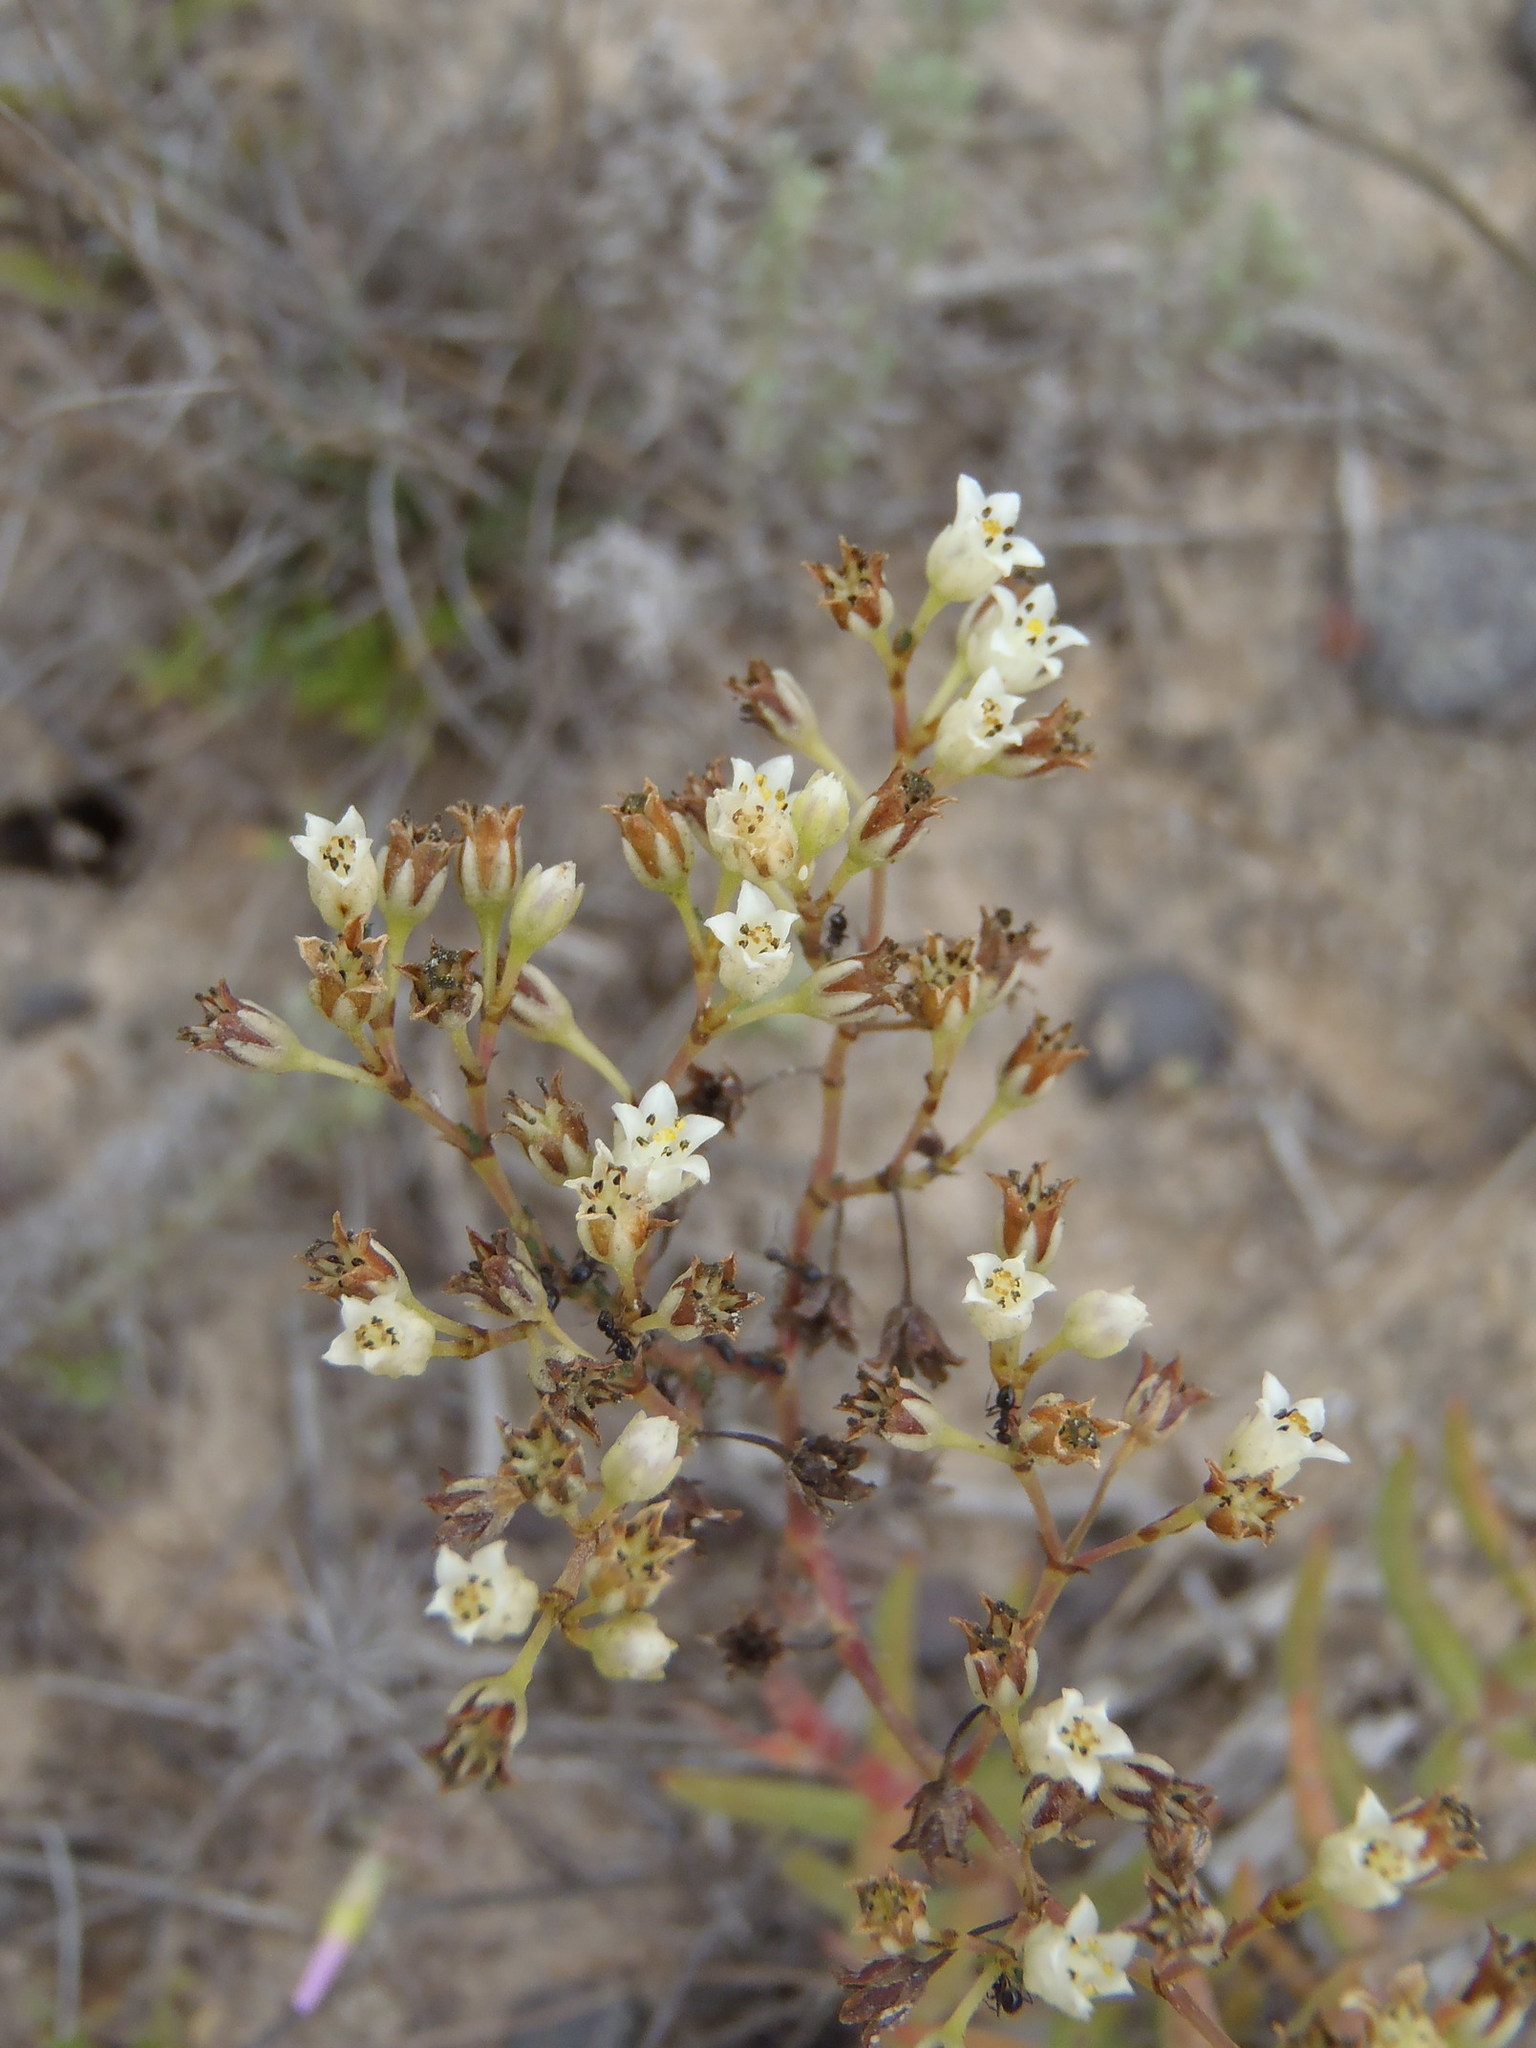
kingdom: Plantae
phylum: Tracheophyta
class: Magnoliopsida
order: Saxifragales
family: Crassulaceae
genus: Crassula
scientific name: Crassula tetragona
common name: Pygmyweed
